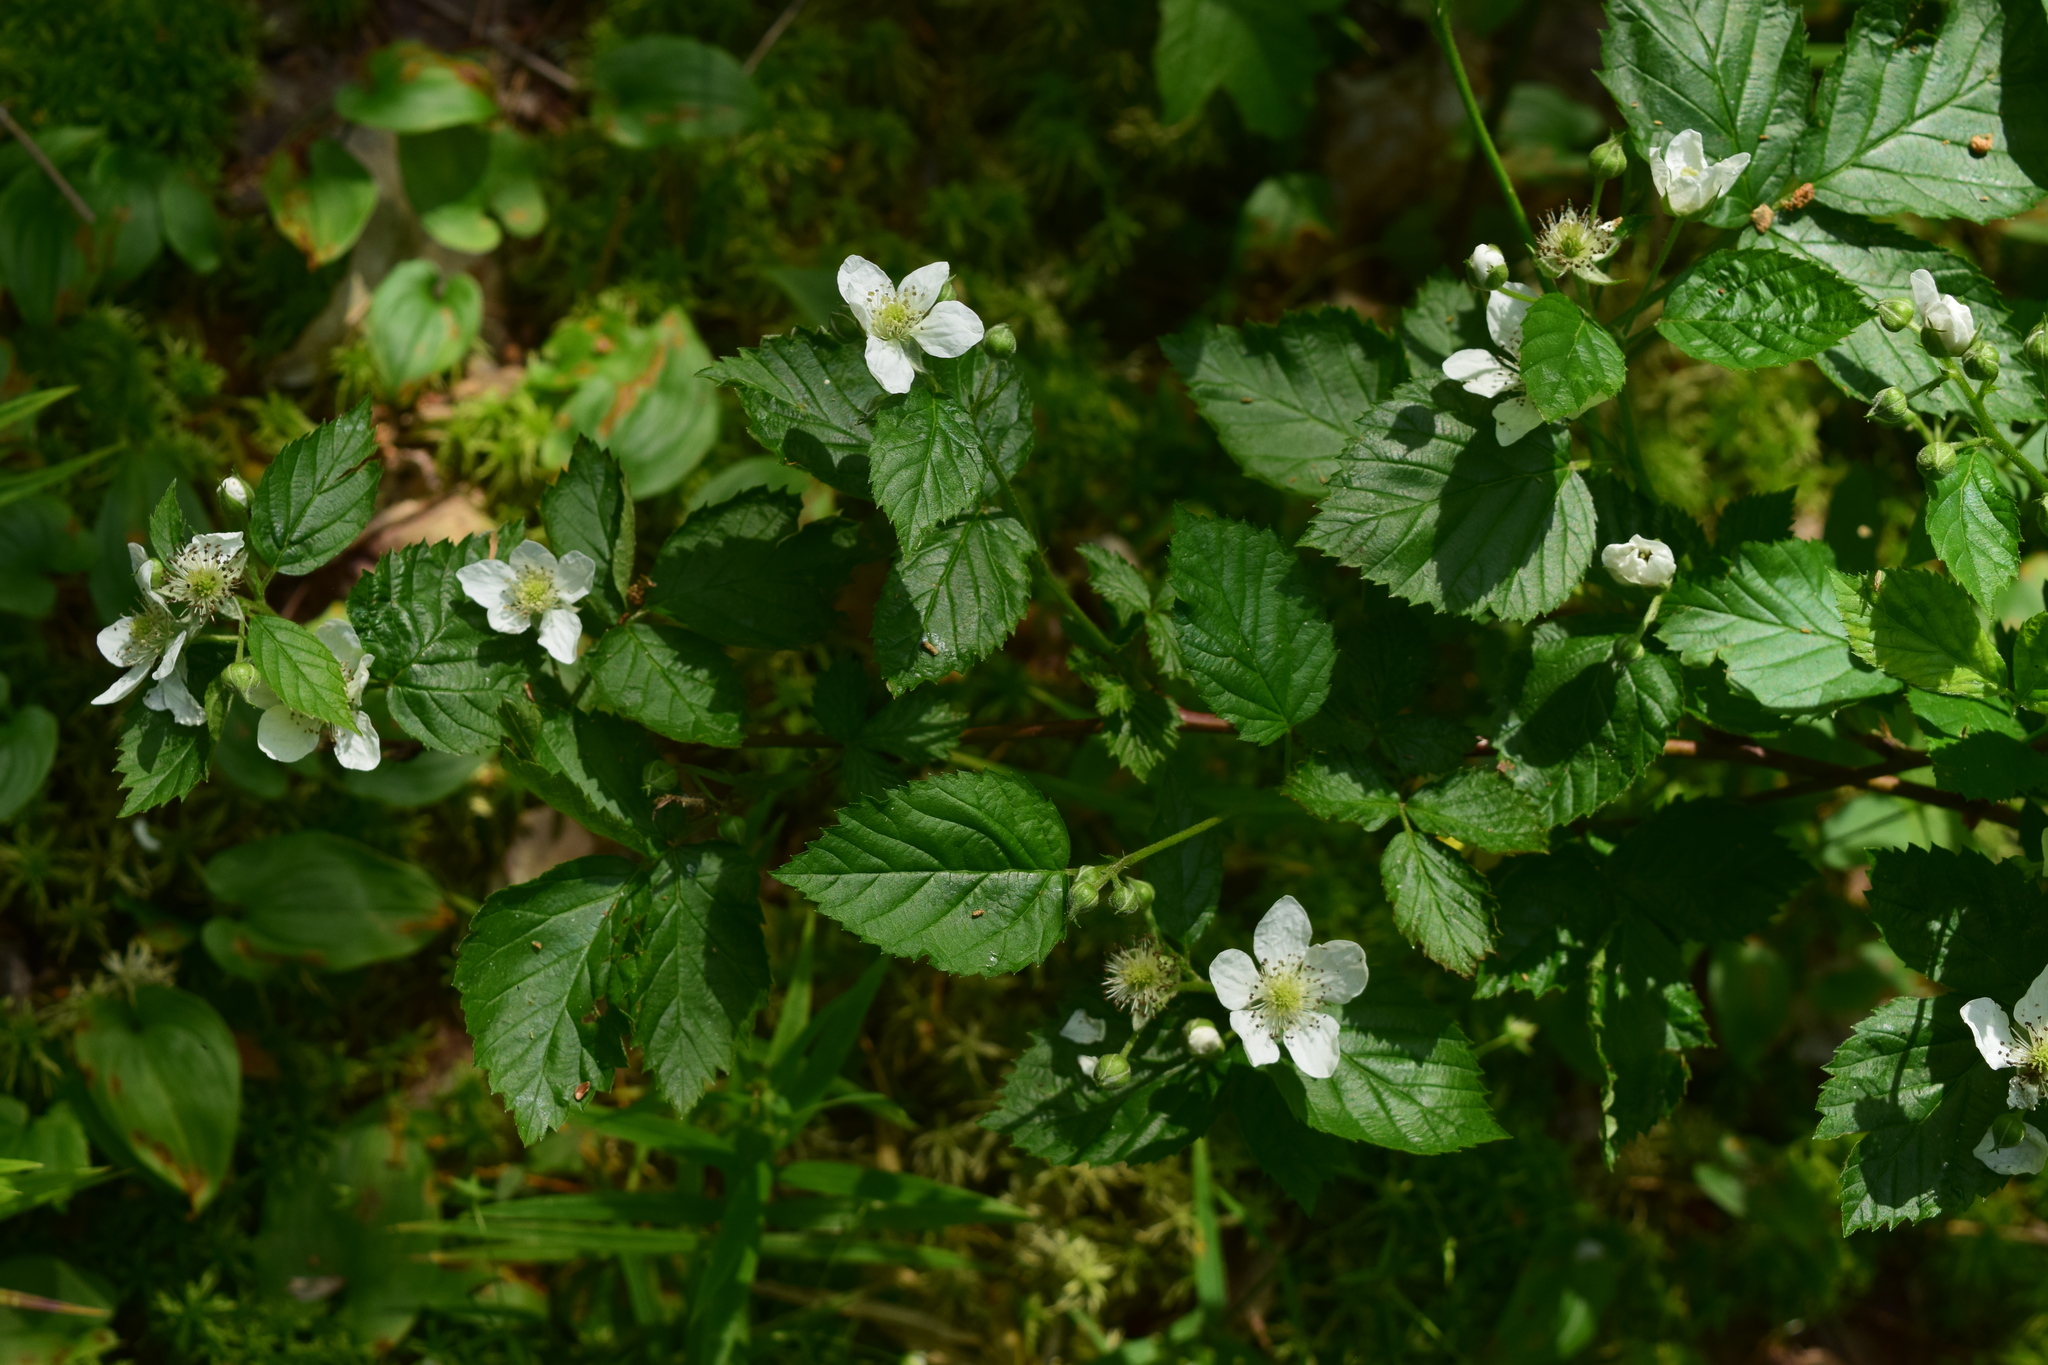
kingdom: Plantae
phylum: Tracheophyta
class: Magnoliopsida
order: Rosales
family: Rosaceae
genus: Rubus
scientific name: Rubus polonicus
